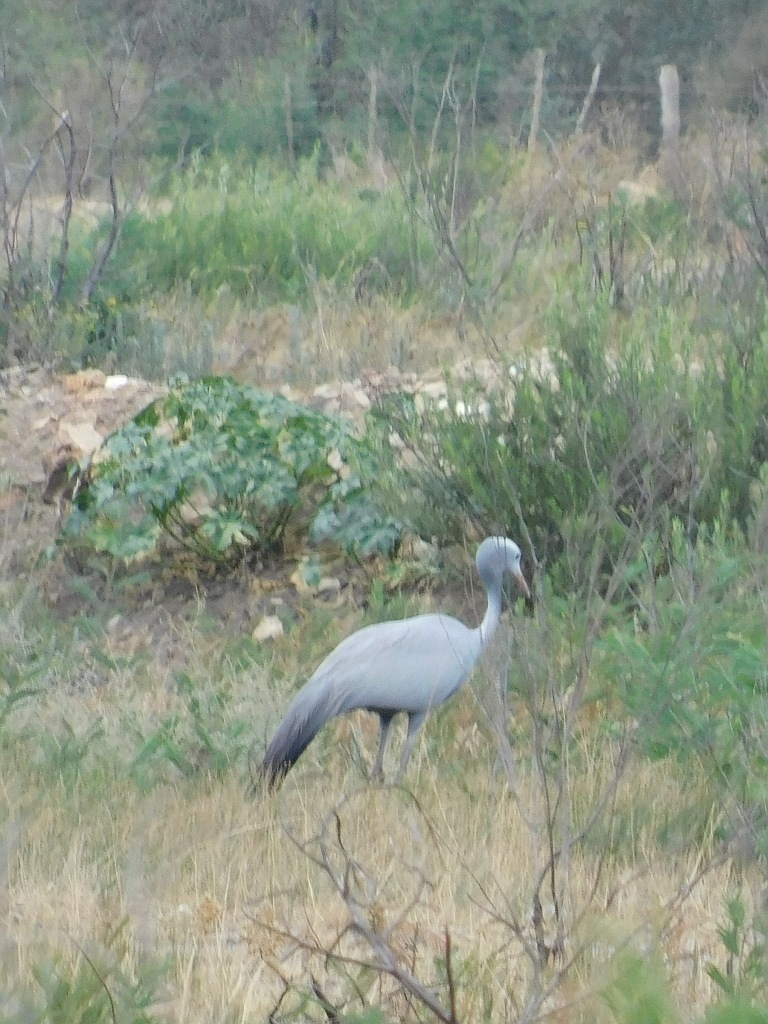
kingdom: Animalia
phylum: Chordata
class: Aves
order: Gruiformes
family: Gruidae
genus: Anthropoides
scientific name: Anthropoides paradiseus
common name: Blue crane
